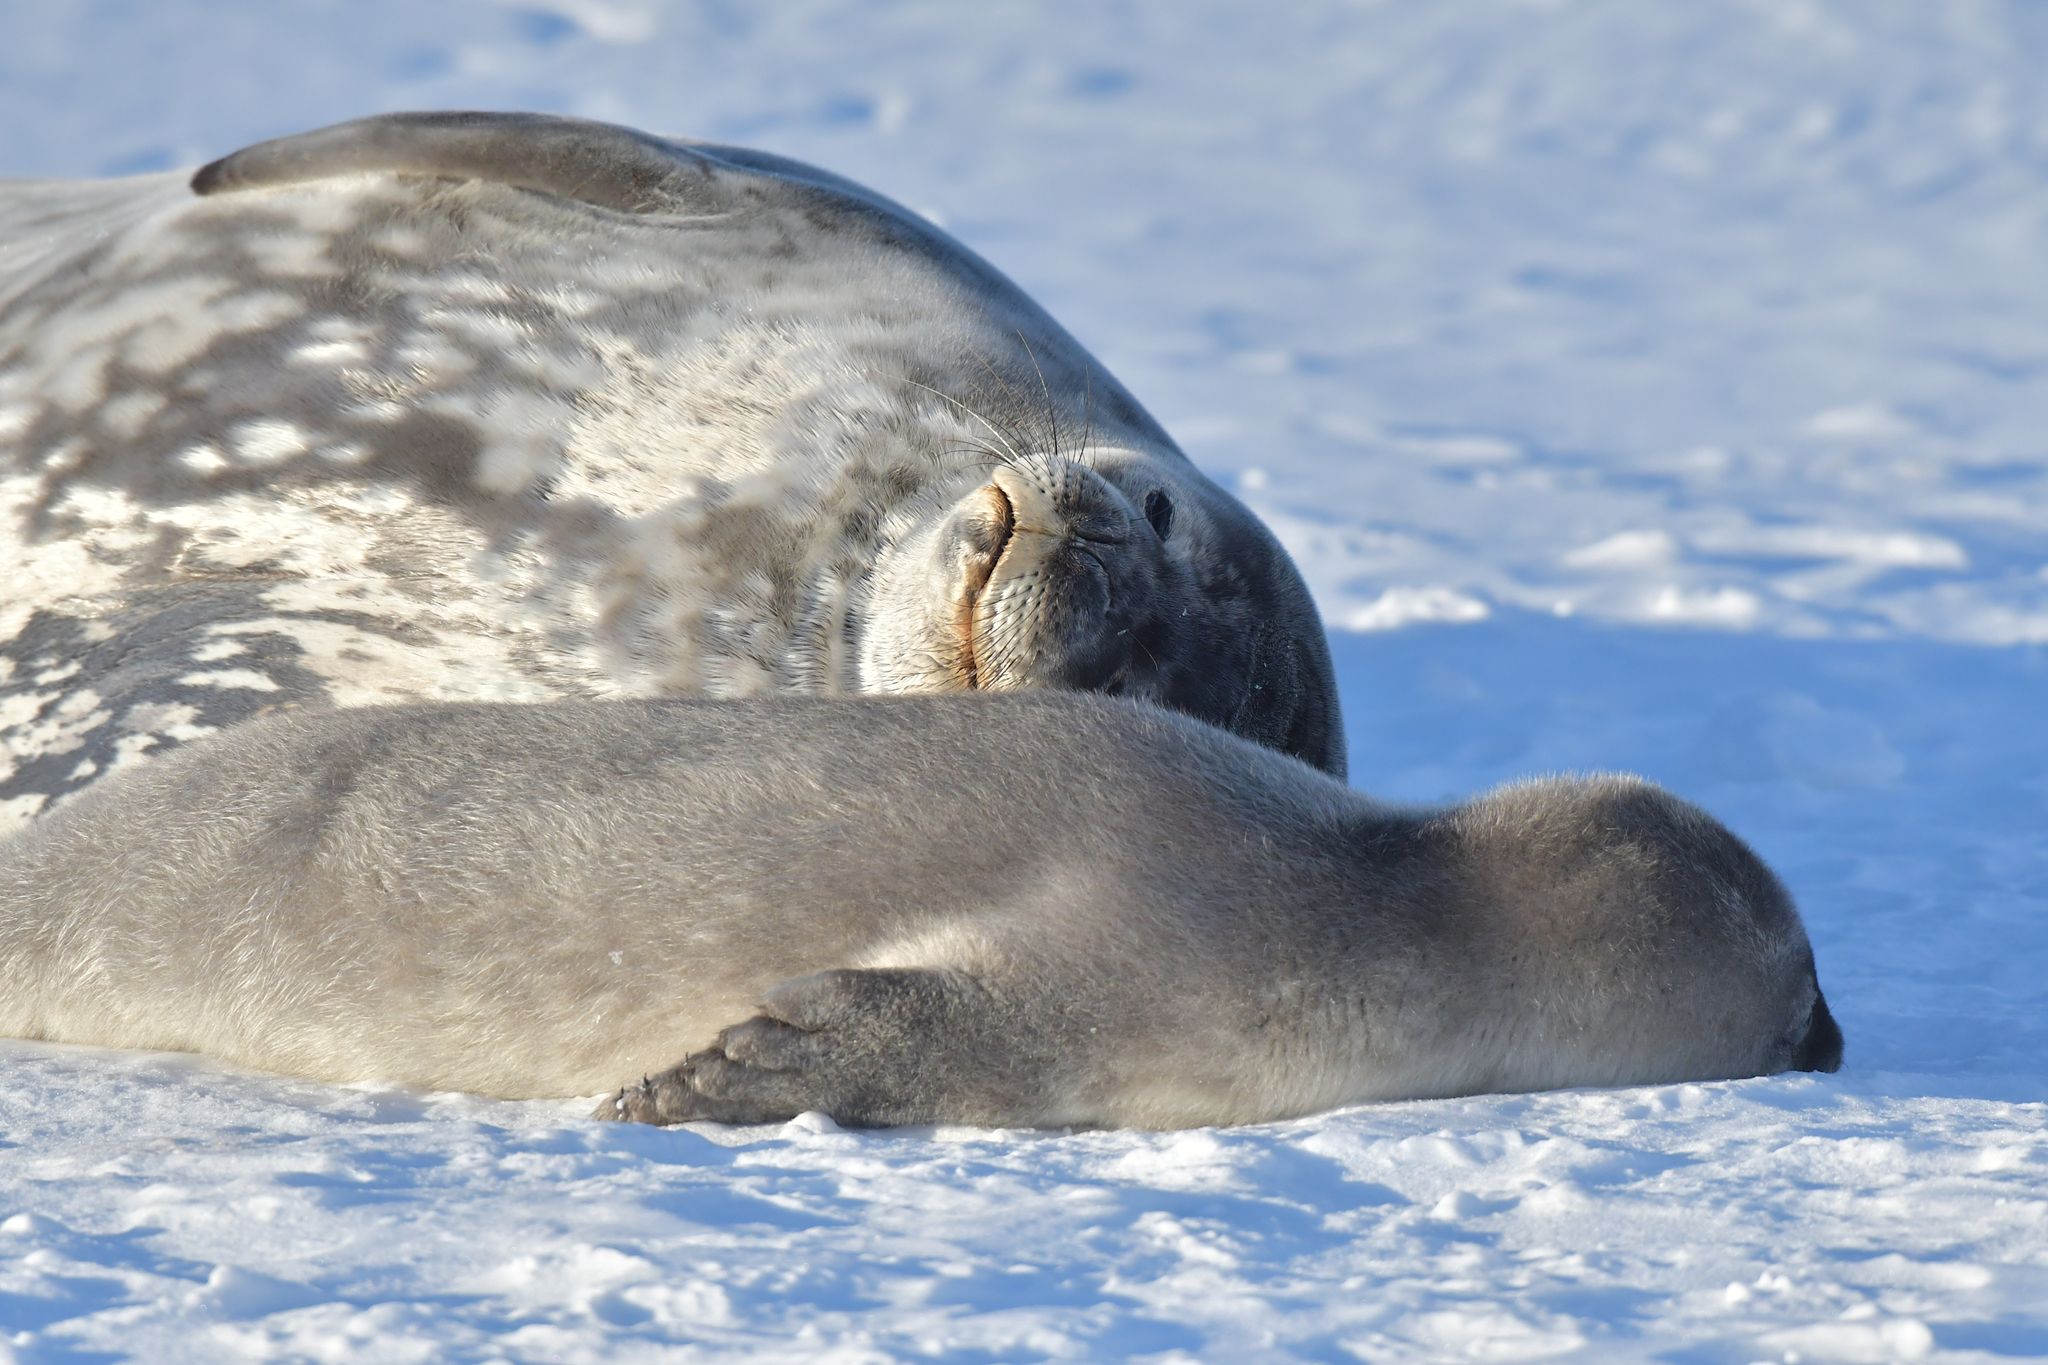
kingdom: Animalia
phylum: Chordata
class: Mammalia
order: Carnivora
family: Phocidae
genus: Leptonychotes
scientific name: Leptonychotes weddellii
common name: Weddell seal
